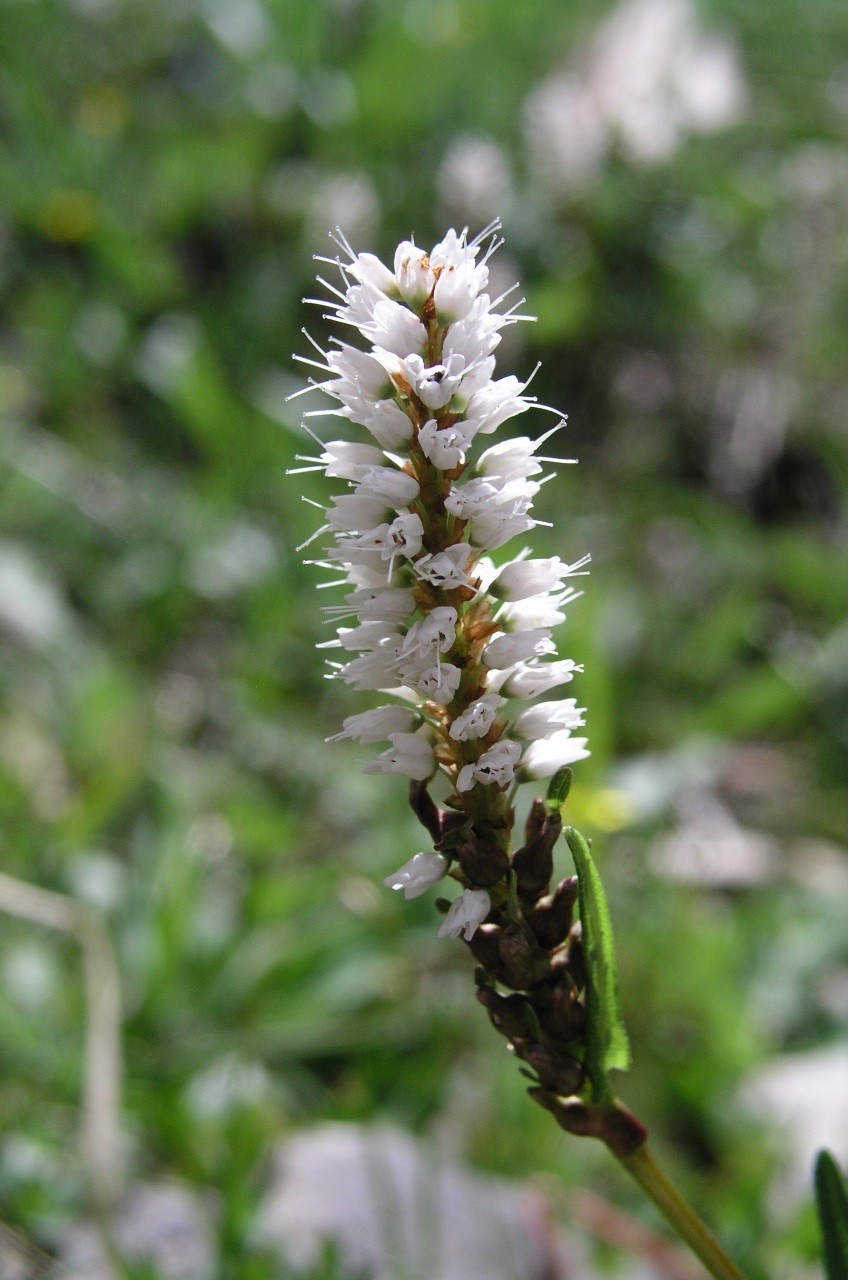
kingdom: Plantae
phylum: Tracheophyta
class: Magnoliopsida
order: Caryophyllales
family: Polygonaceae
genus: Bistorta
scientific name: Bistorta vivipara
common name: Alpine bistort
